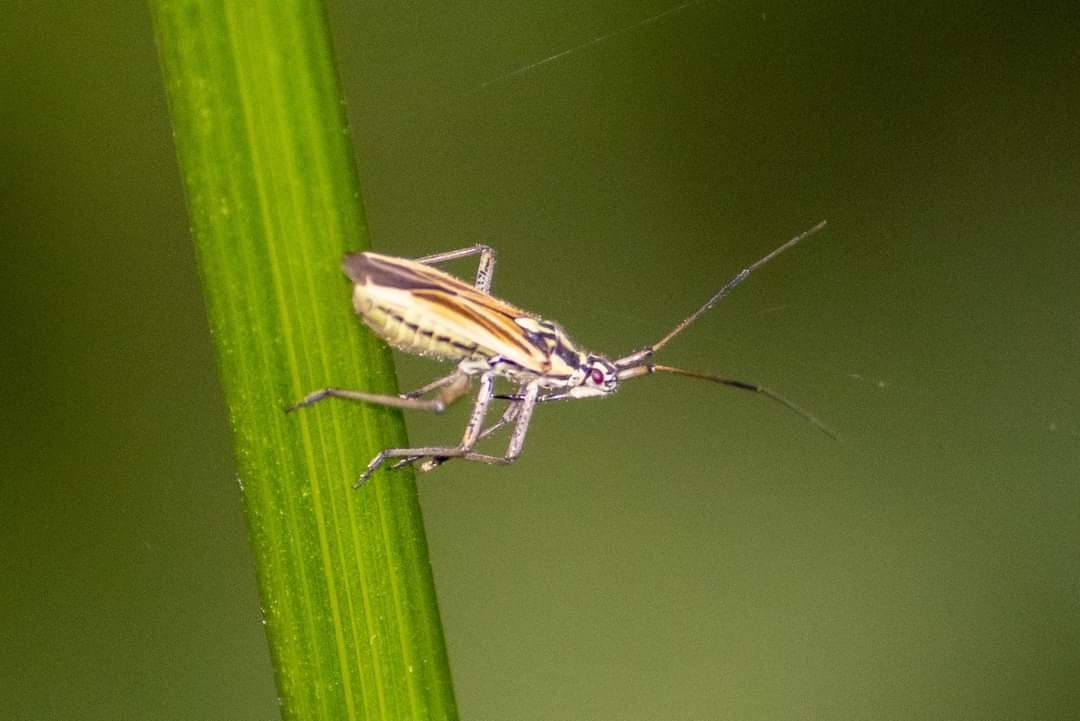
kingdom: Animalia
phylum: Arthropoda
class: Insecta
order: Hemiptera
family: Miridae
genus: Leptopterna
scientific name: Leptopterna dolabrata
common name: Meadow plant bug
